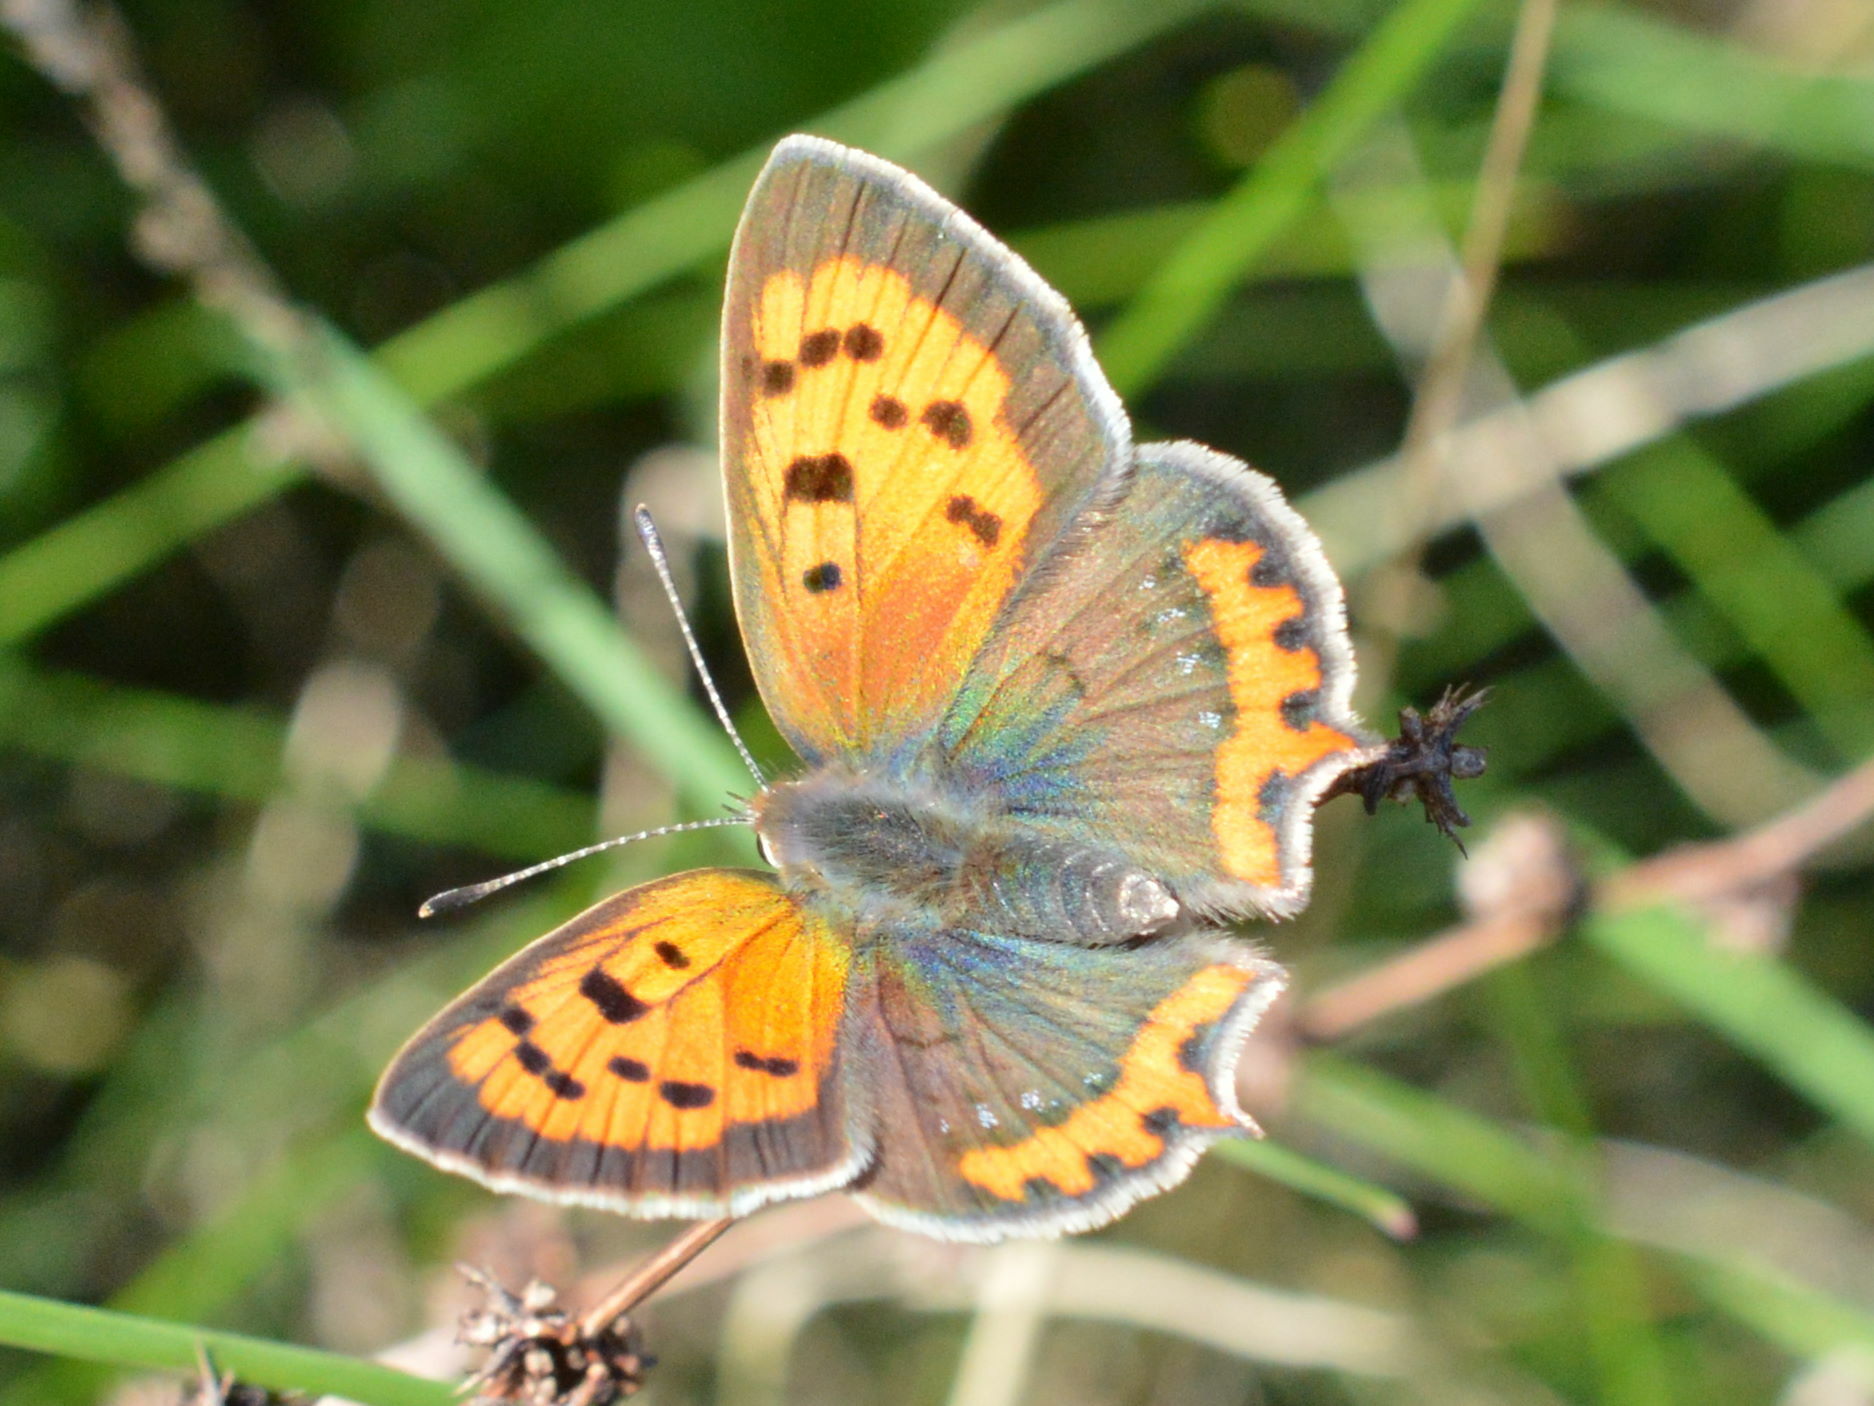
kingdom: Animalia
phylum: Arthropoda
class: Insecta
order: Lepidoptera
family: Lycaenidae
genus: Lycaena
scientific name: Lycaena phlaeas
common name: Small copper
